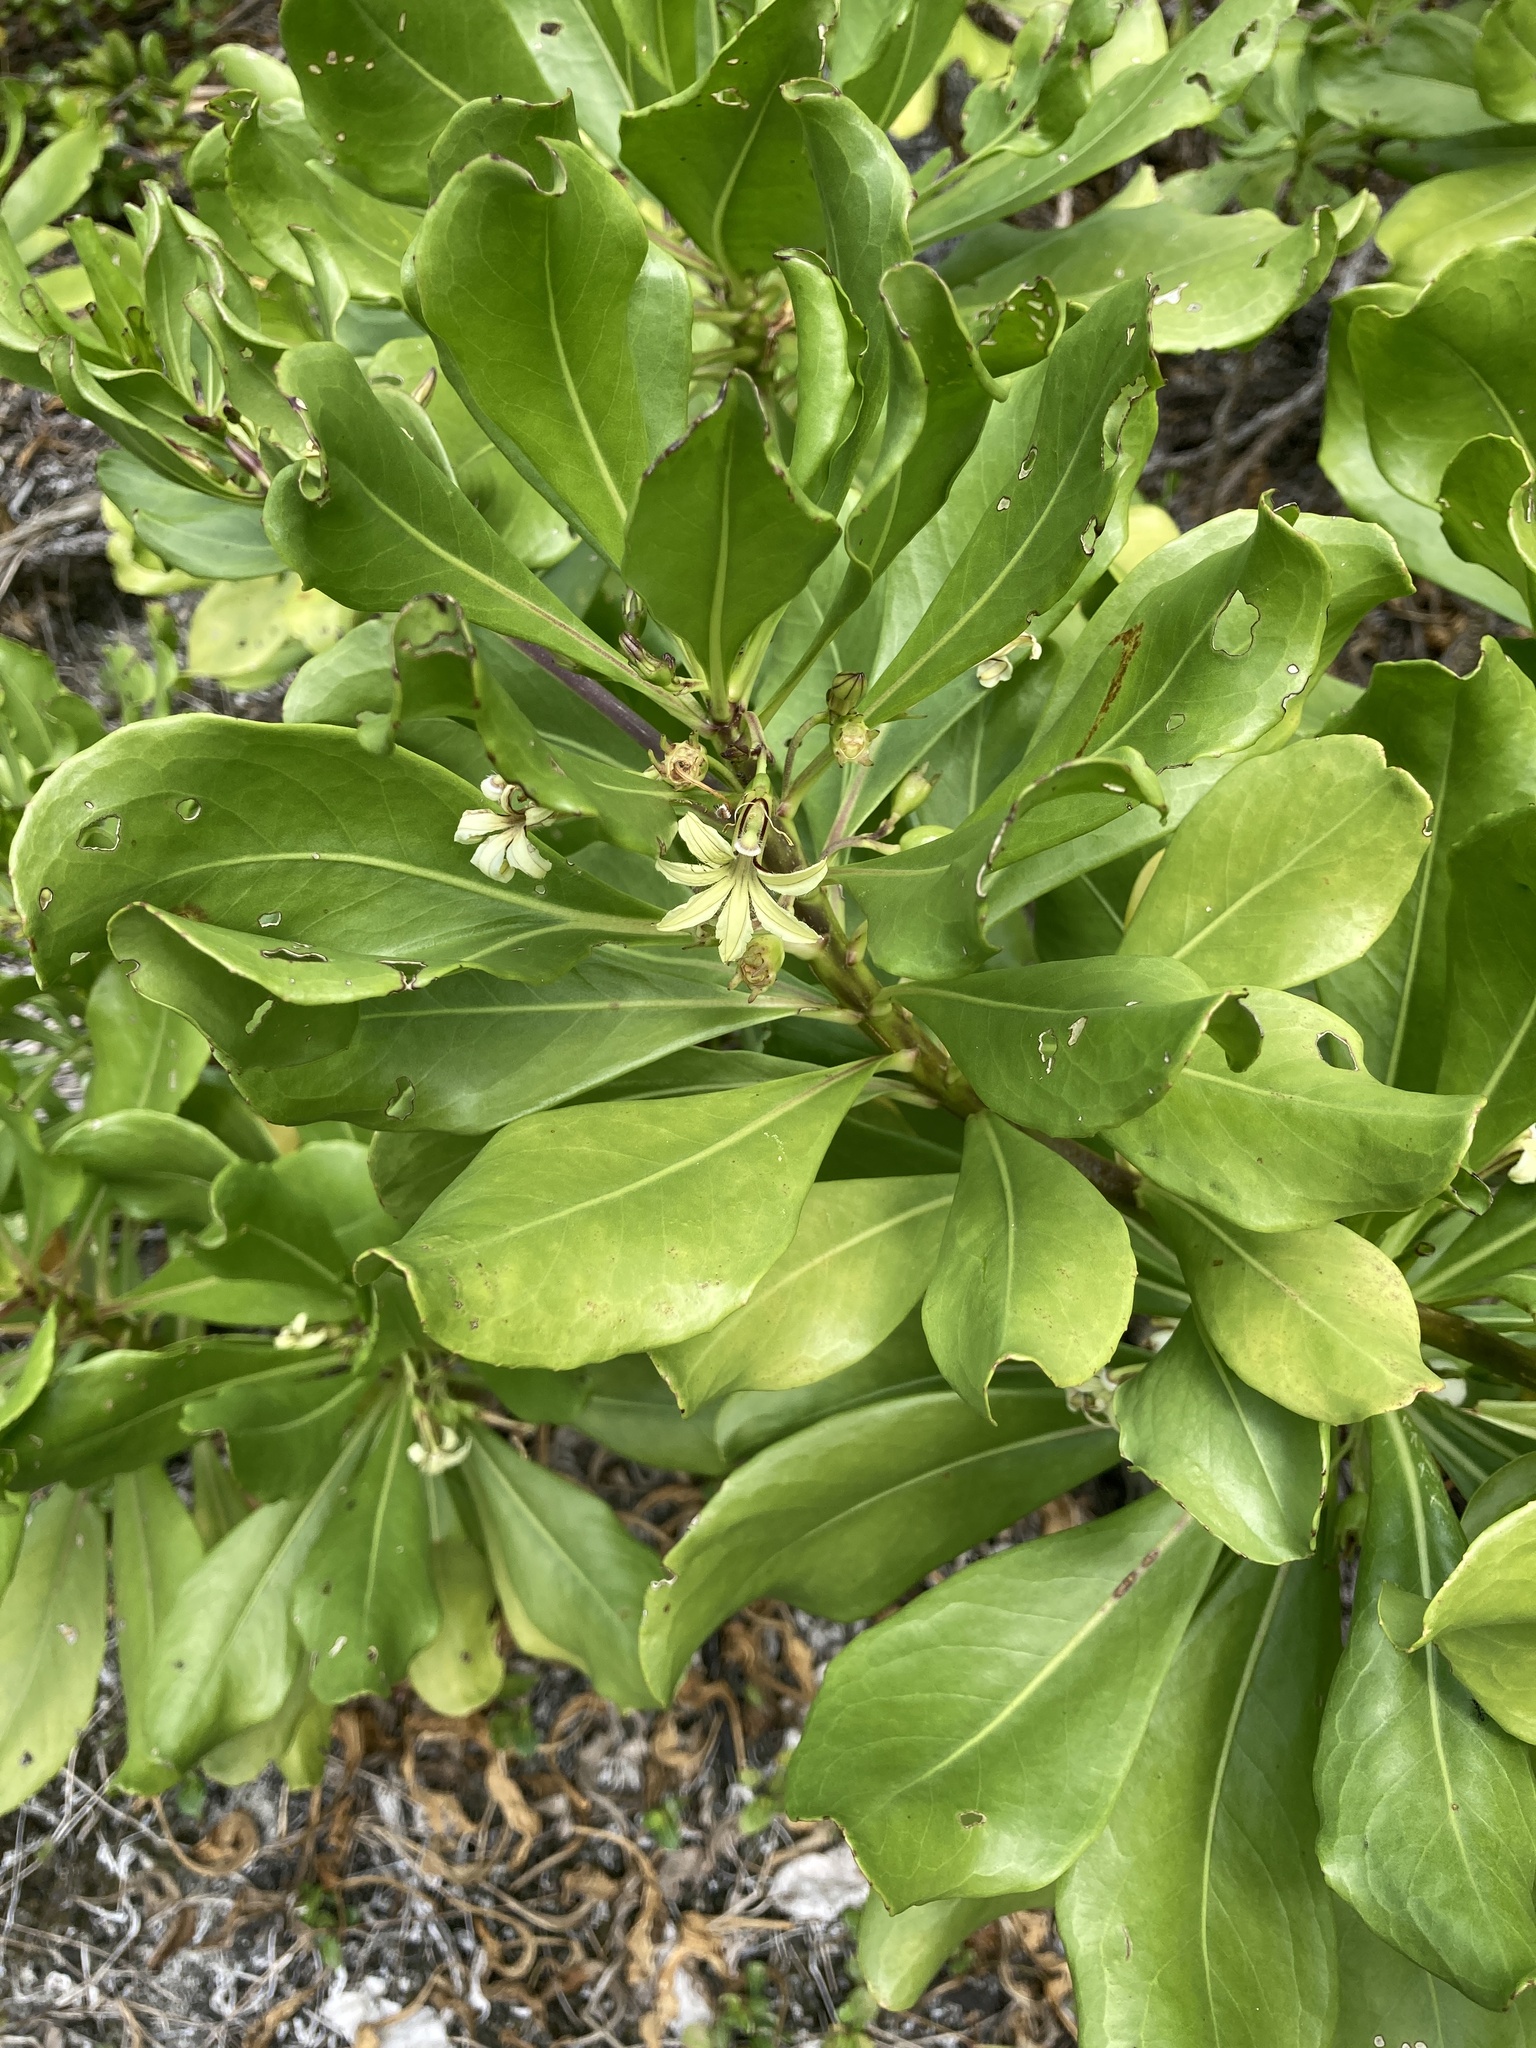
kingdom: Plantae
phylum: Tracheophyta
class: Magnoliopsida
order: Asterales
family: Goodeniaceae
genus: Scaevola
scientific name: Scaevola taccada
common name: Sea lettucetree
